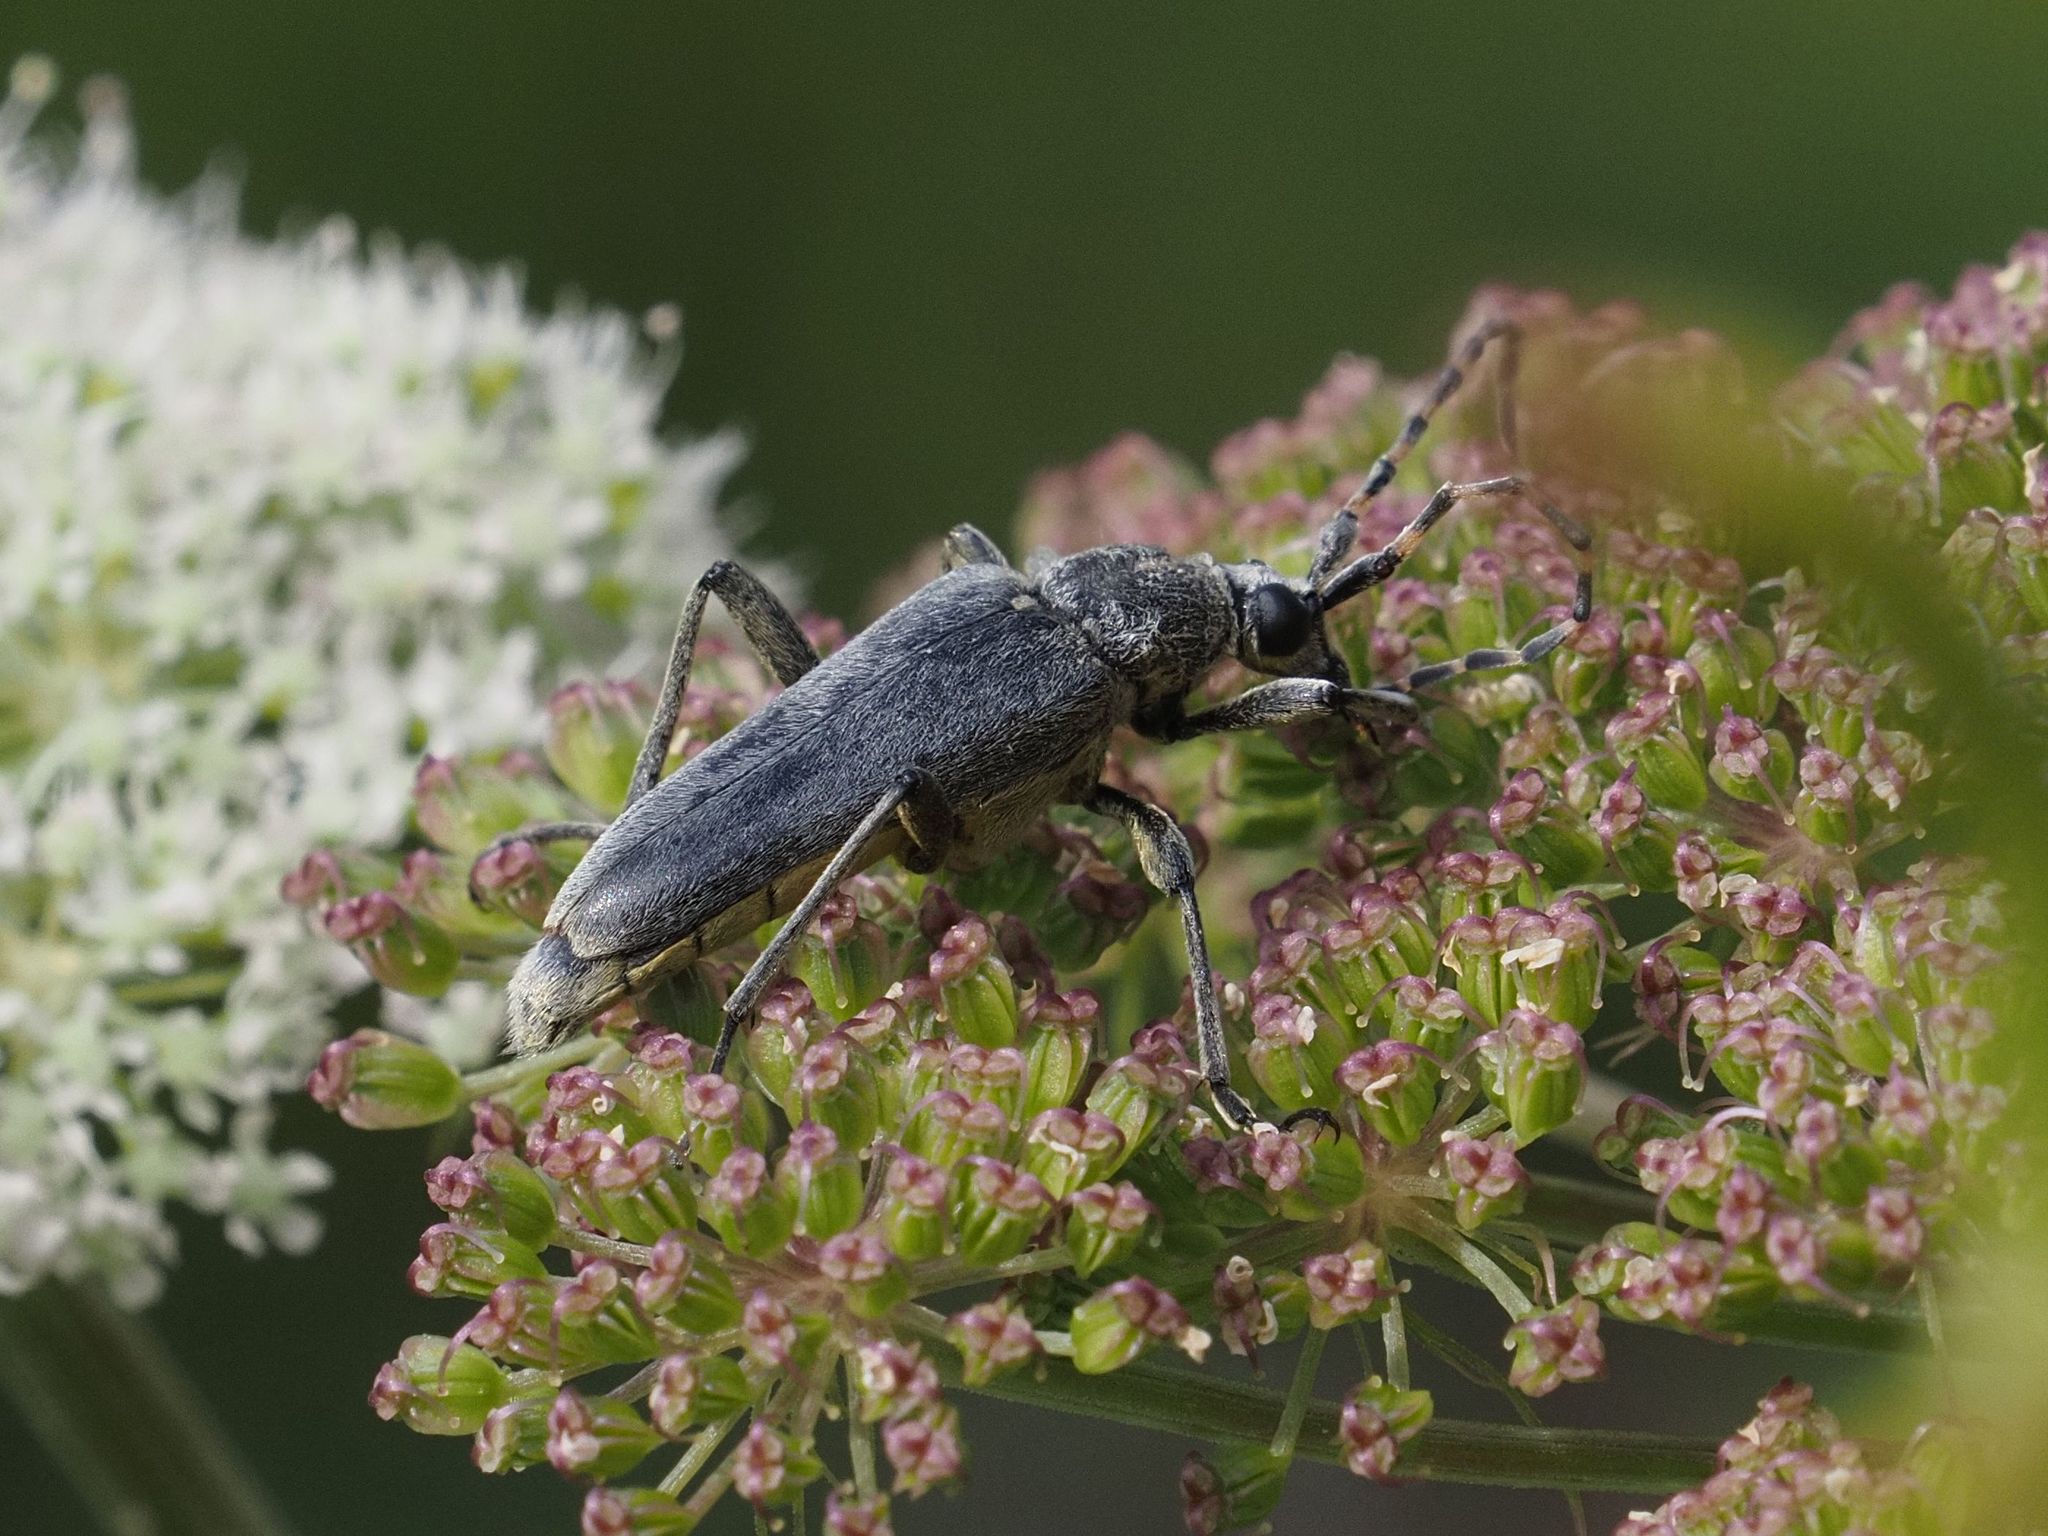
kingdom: Animalia
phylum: Arthropoda
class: Insecta
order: Coleoptera
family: Cerambycidae
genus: Lepturobosca
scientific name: Lepturobosca virens
